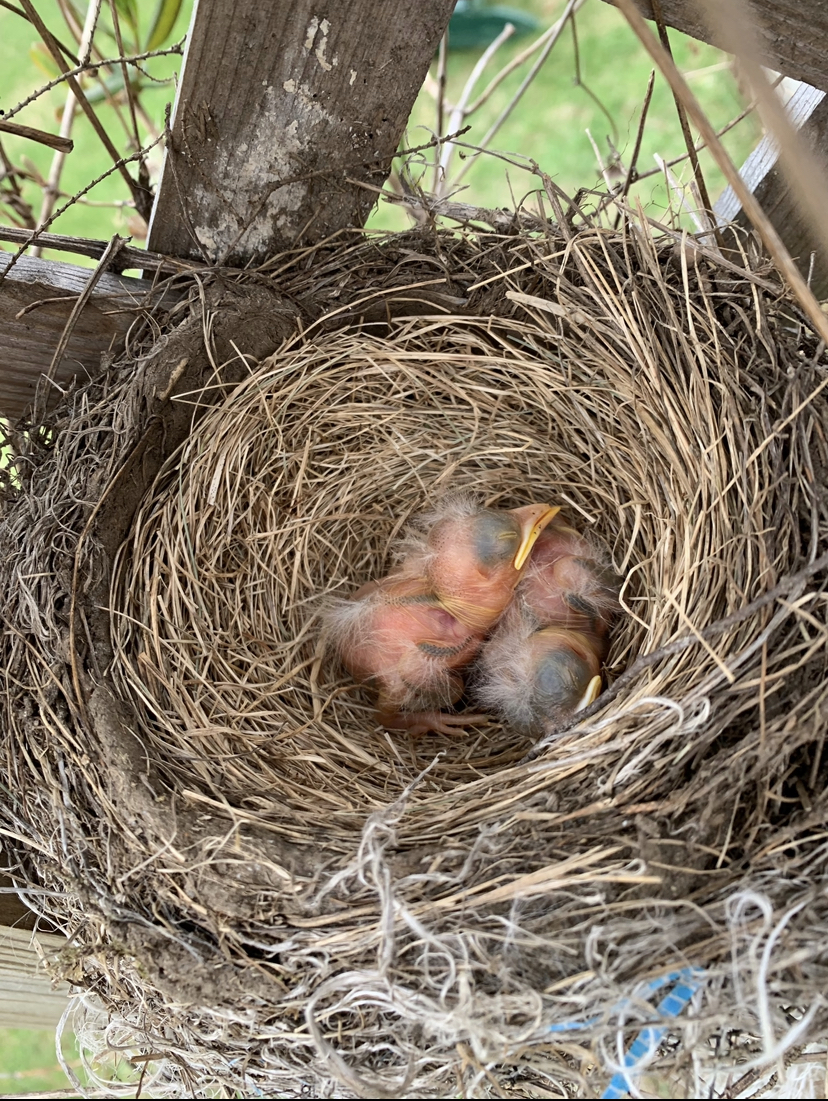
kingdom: Animalia
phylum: Chordata
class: Aves
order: Passeriformes
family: Turdidae
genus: Turdus
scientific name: Turdus migratorius
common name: American robin
